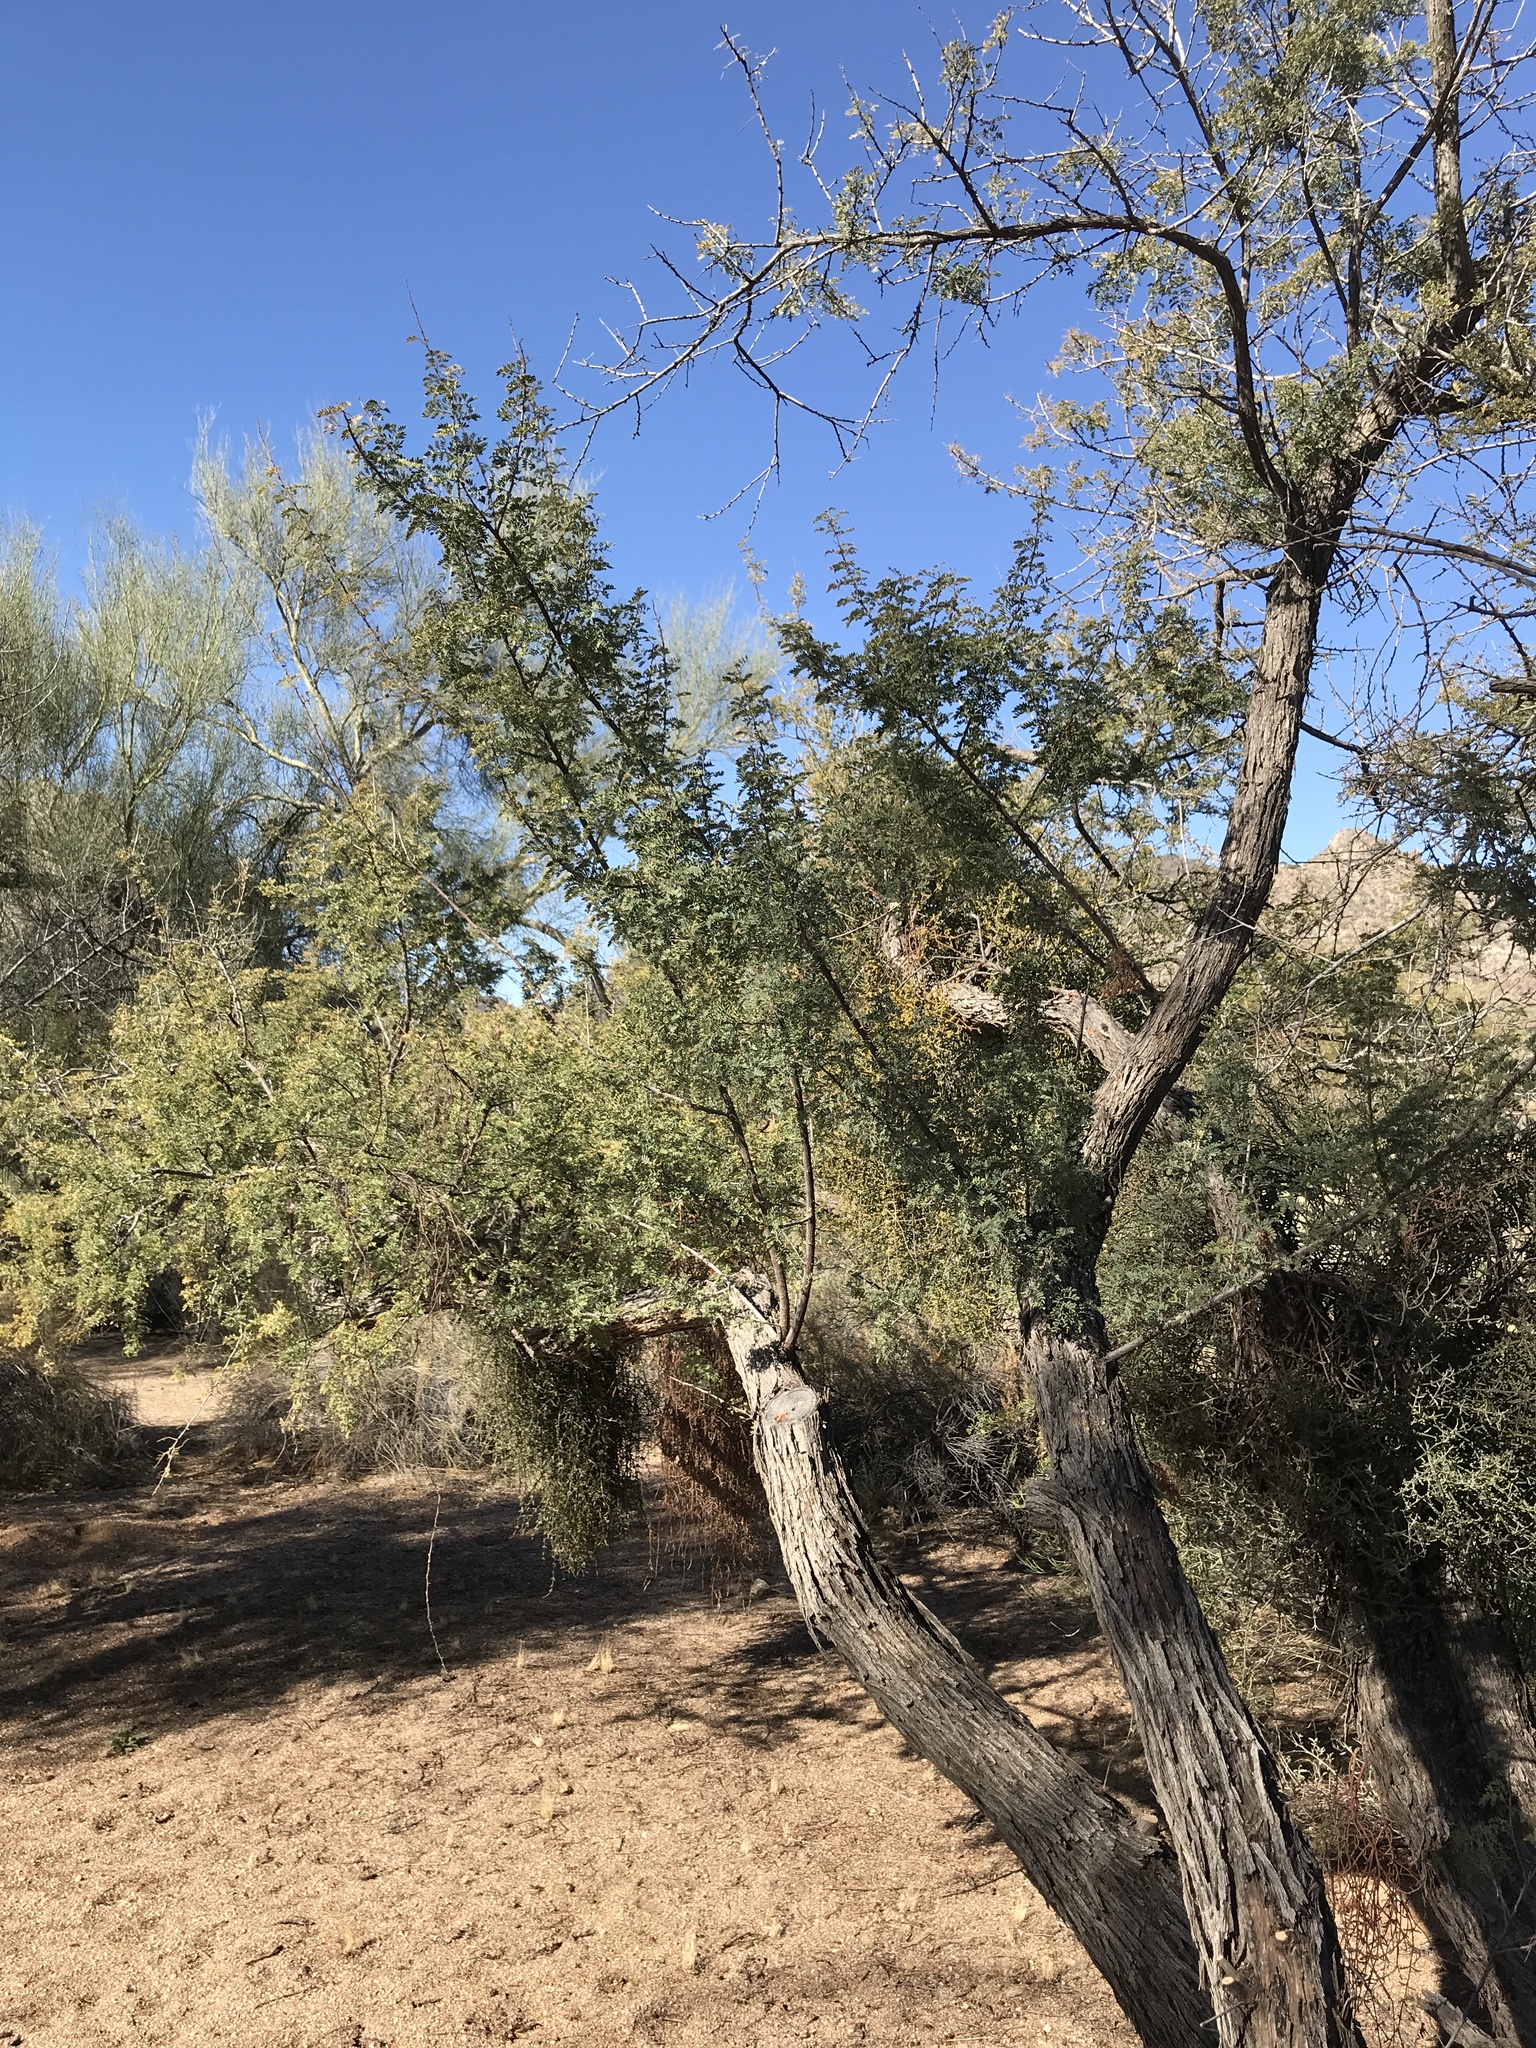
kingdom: Plantae
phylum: Tracheophyta
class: Magnoliopsida
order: Fabales
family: Fabaceae
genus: Senegalia
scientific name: Senegalia greggii
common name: Texas-mimosa
